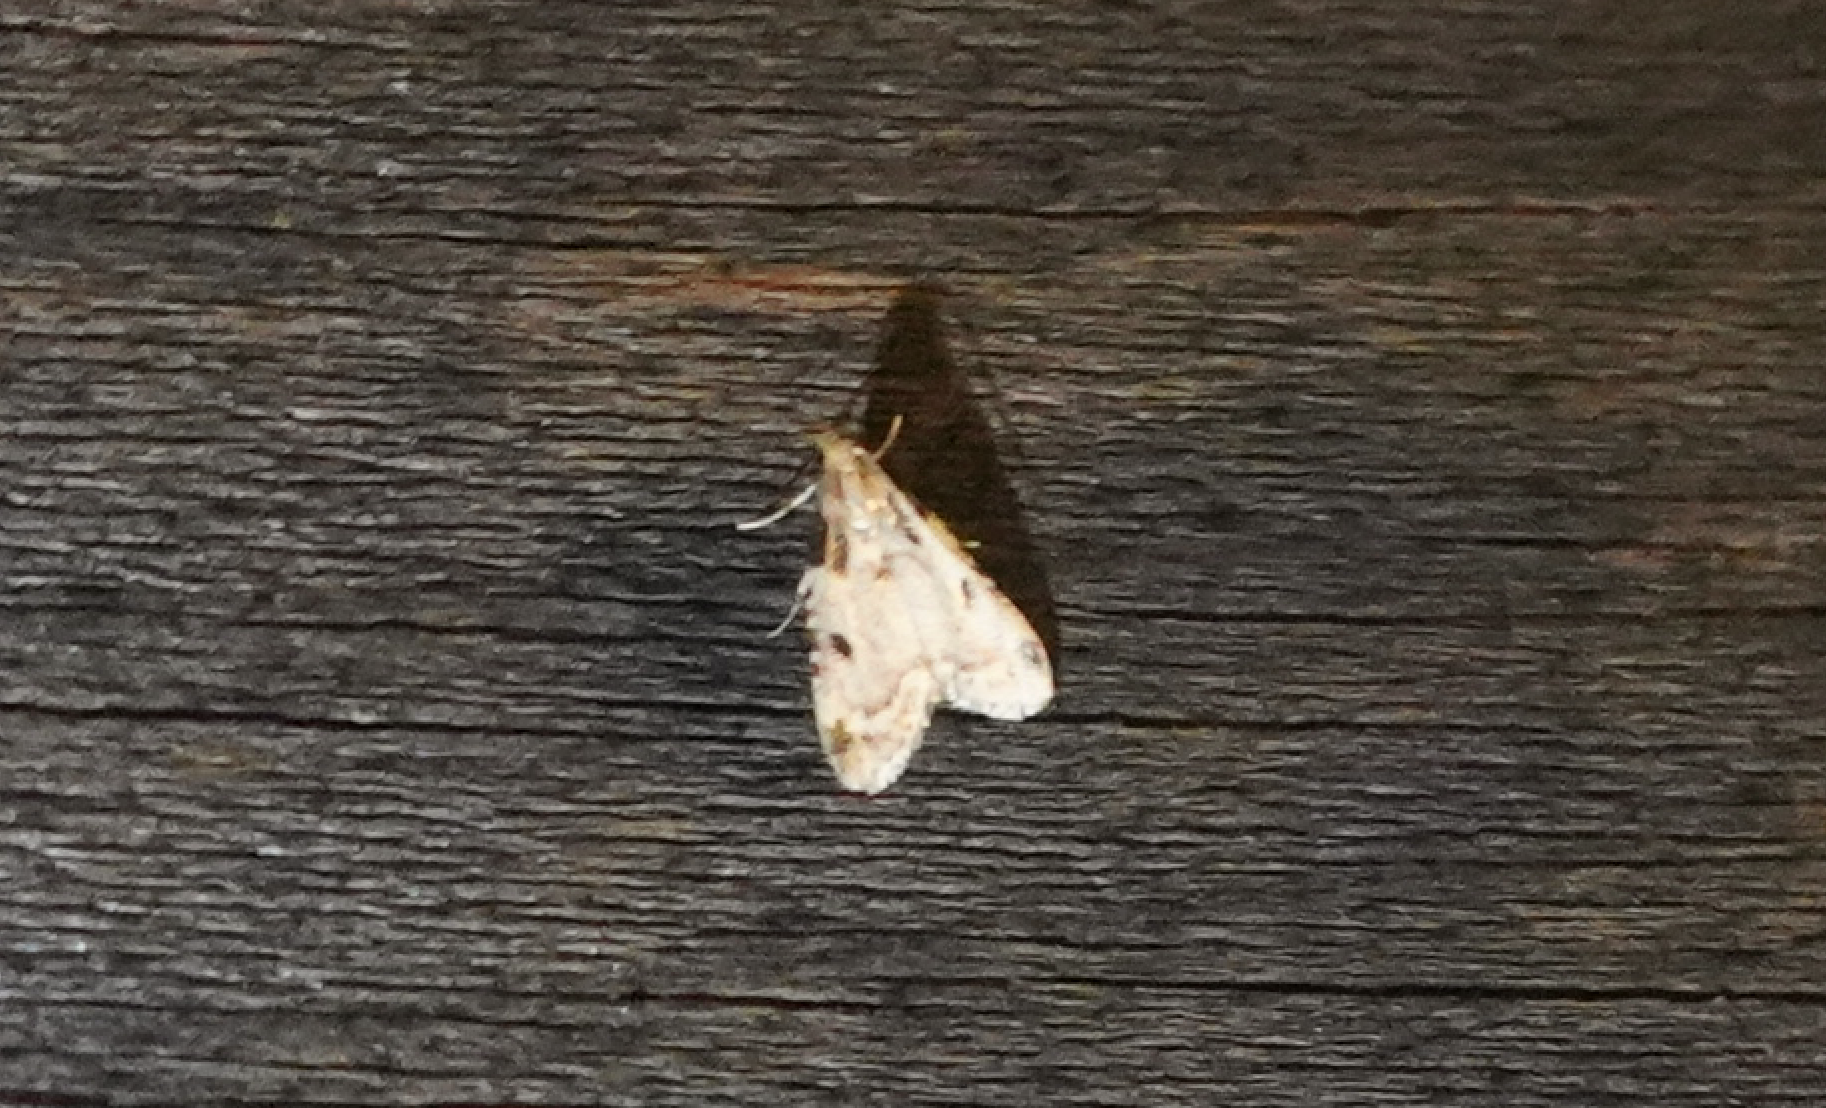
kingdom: Animalia
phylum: Arthropoda
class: Insecta
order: Lepidoptera
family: Pyralidae
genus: Aglossa
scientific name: Aglossa costiferalis
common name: Calico pyralid moth
